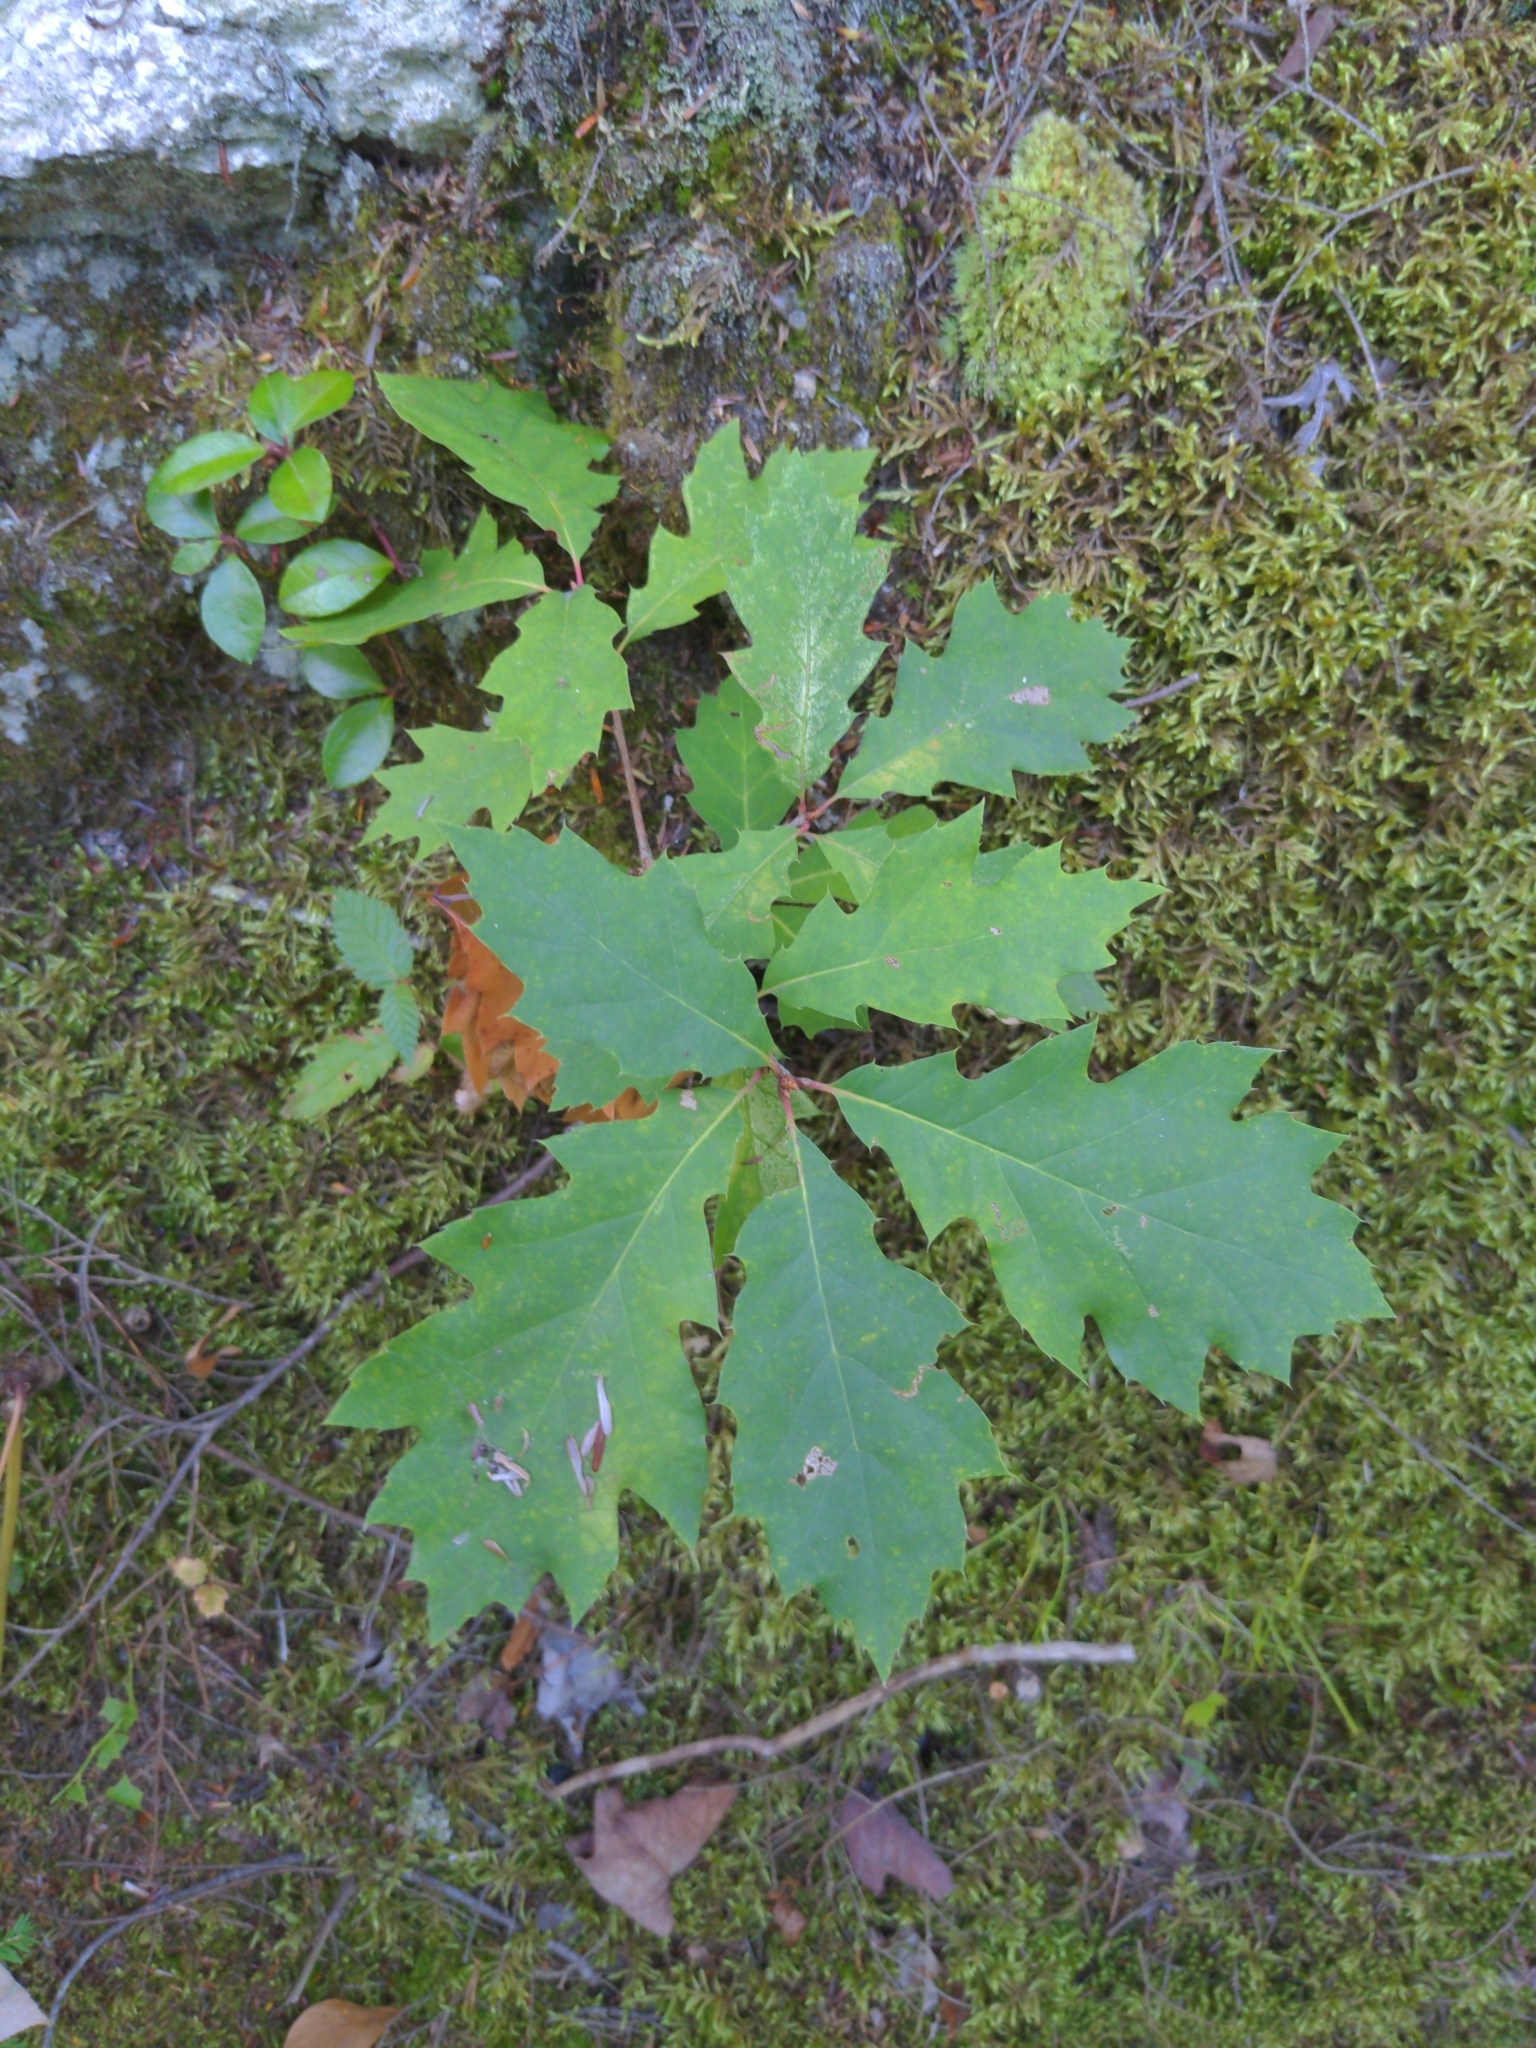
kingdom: Plantae
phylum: Tracheophyta
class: Magnoliopsida
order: Fagales
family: Fagaceae
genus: Quercus
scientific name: Quercus rubra
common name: Red oak
